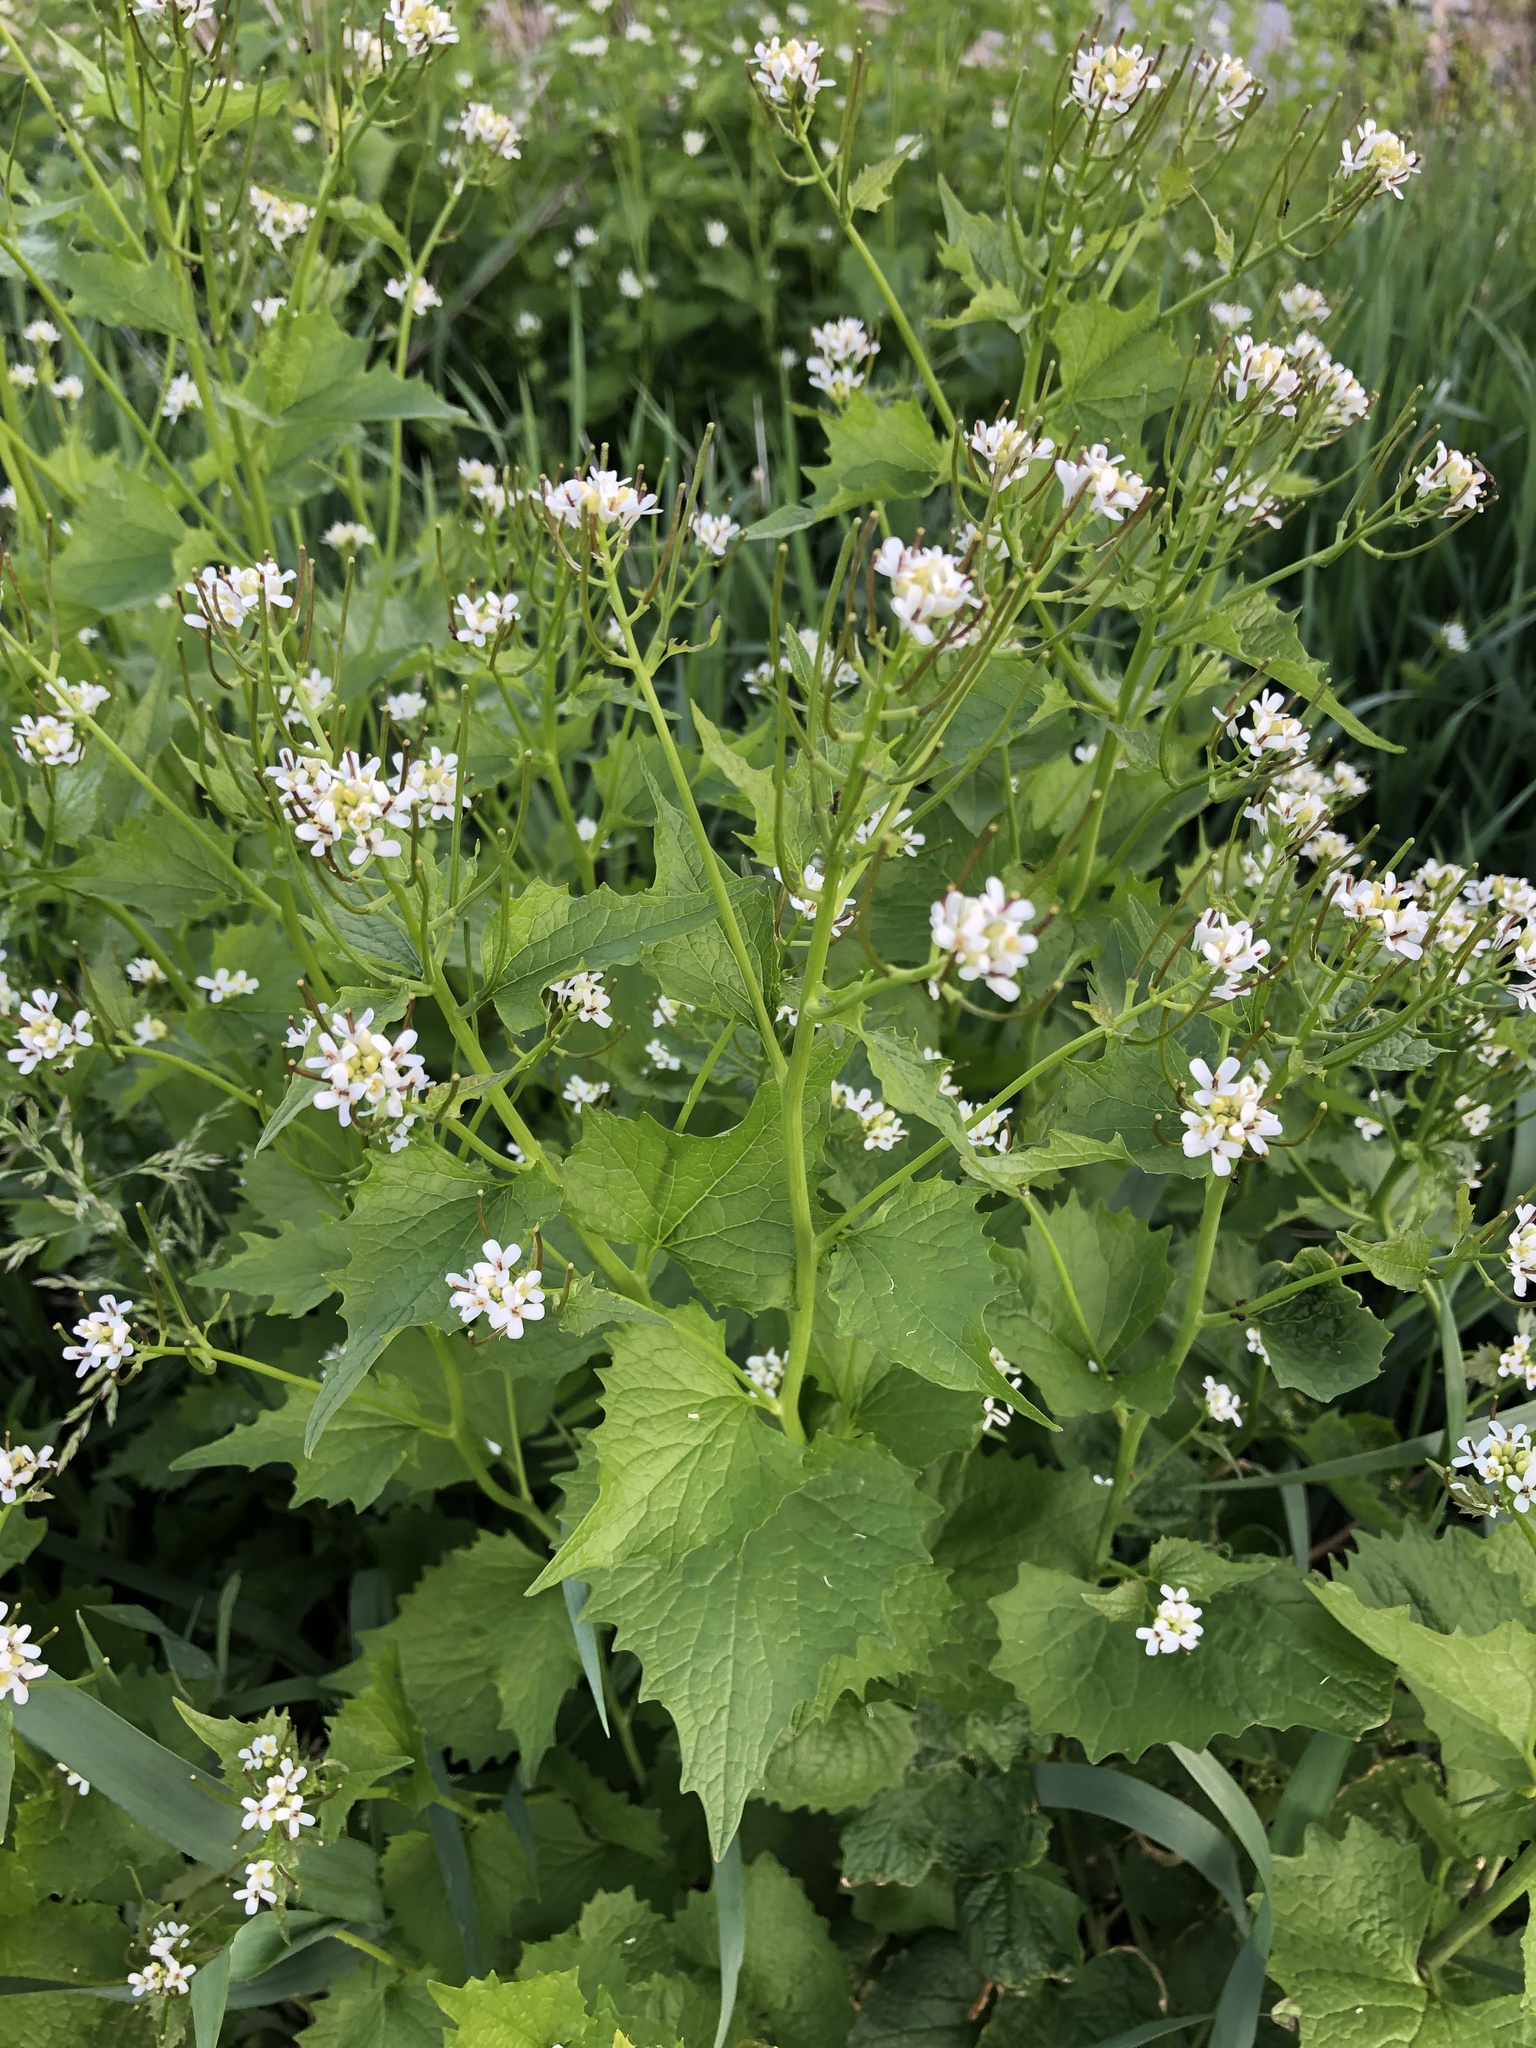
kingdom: Plantae
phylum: Tracheophyta
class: Magnoliopsida
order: Brassicales
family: Brassicaceae
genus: Alliaria
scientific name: Alliaria petiolata
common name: Garlic mustard
